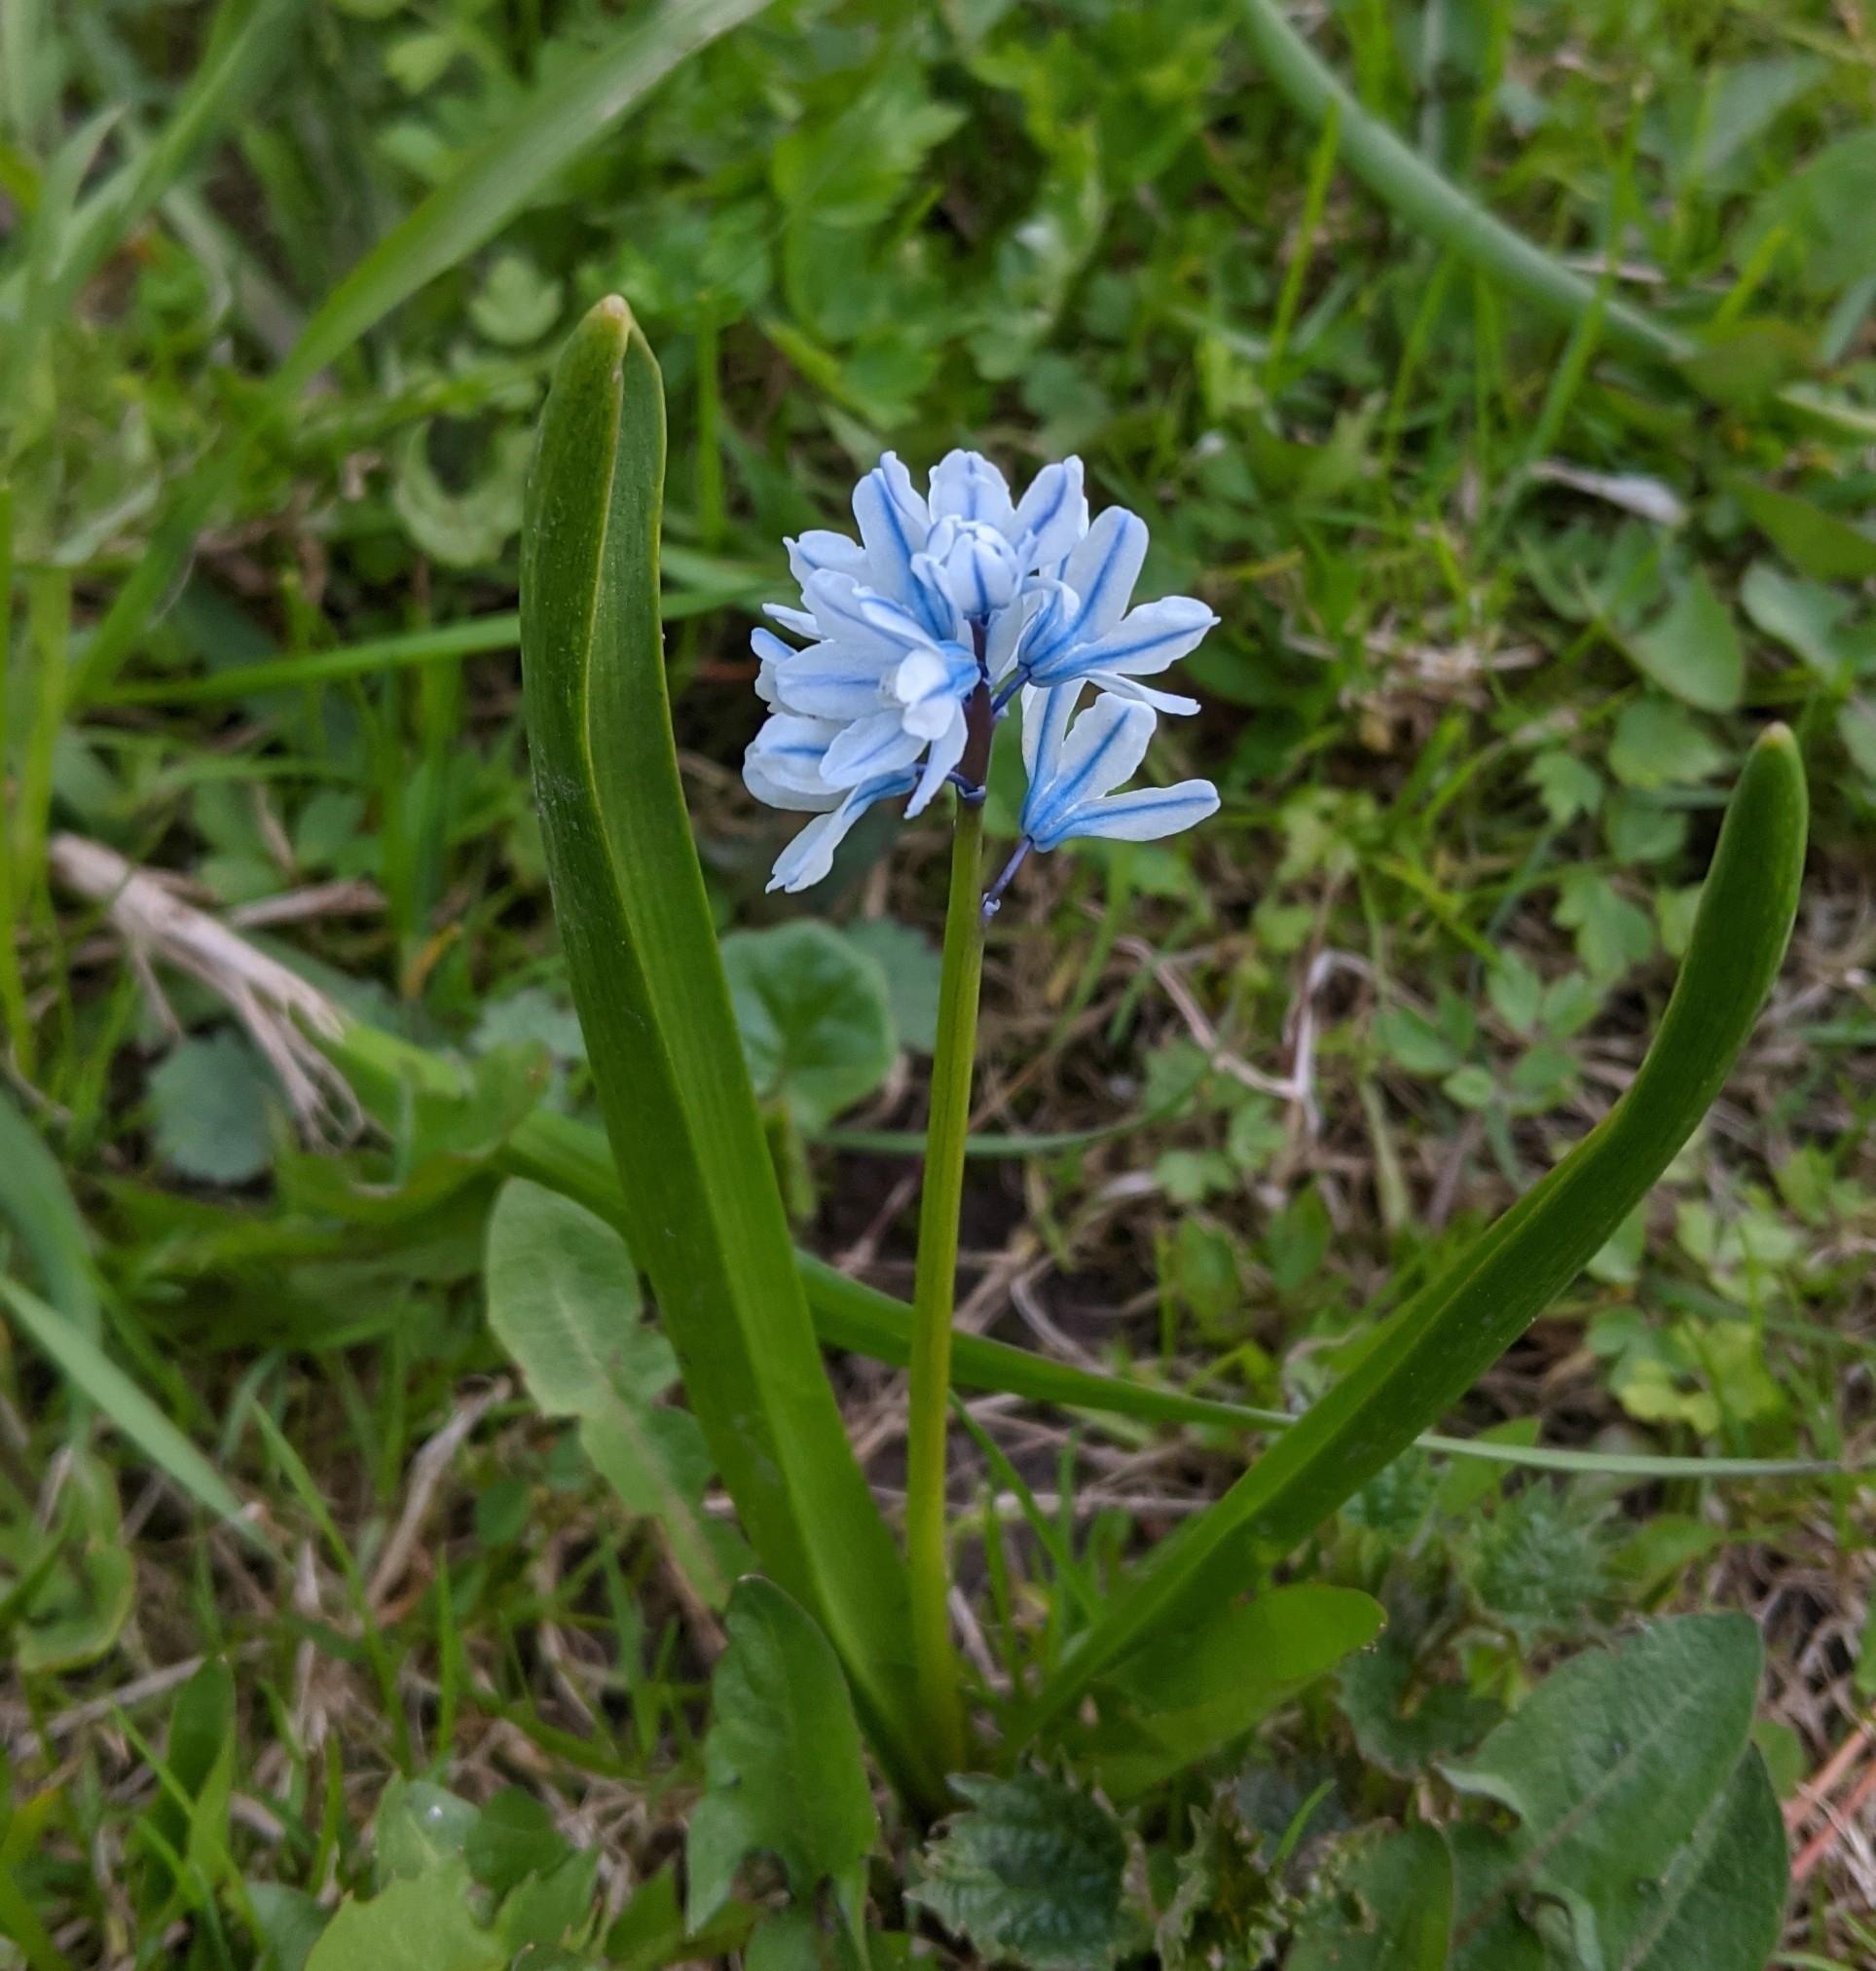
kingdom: Plantae
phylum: Tracheophyta
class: Liliopsida
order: Asparagales
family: Asparagaceae
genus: Puschkinia
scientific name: Puschkinia scilloides
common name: Striped squill
